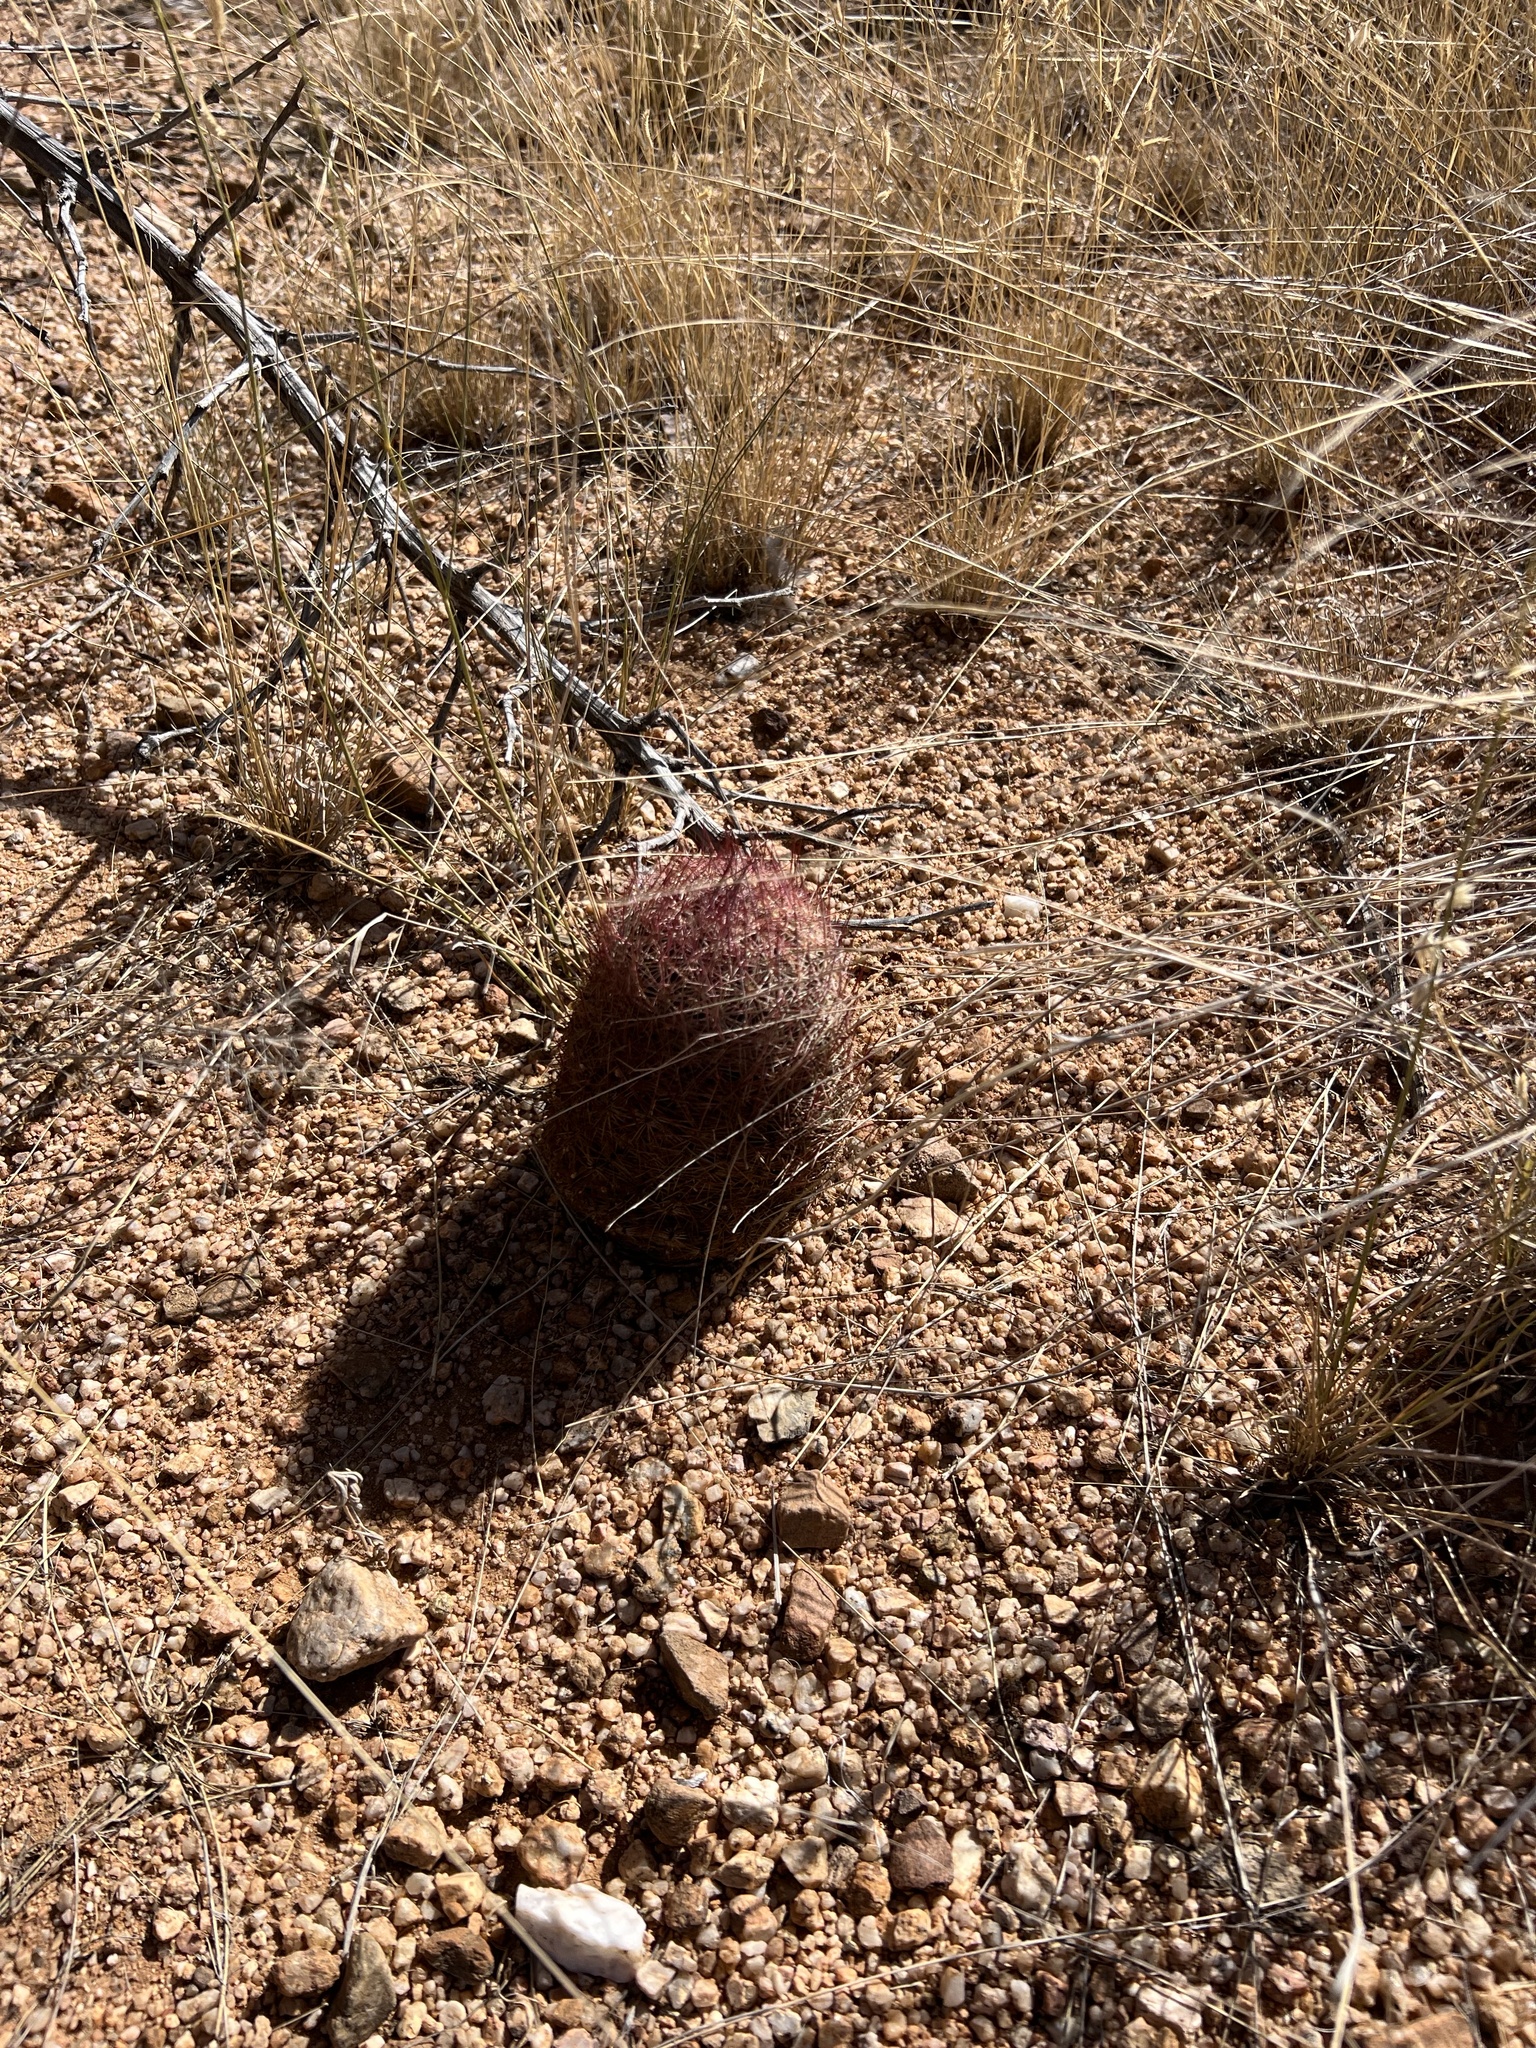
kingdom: Plantae
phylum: Tracheophyta
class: Magnoliopsida
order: Caryophyllales
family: Cactaceae
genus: Sclerocactus
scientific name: Sclerocactus johnsonii
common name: Eight-spine fishhook cactus
